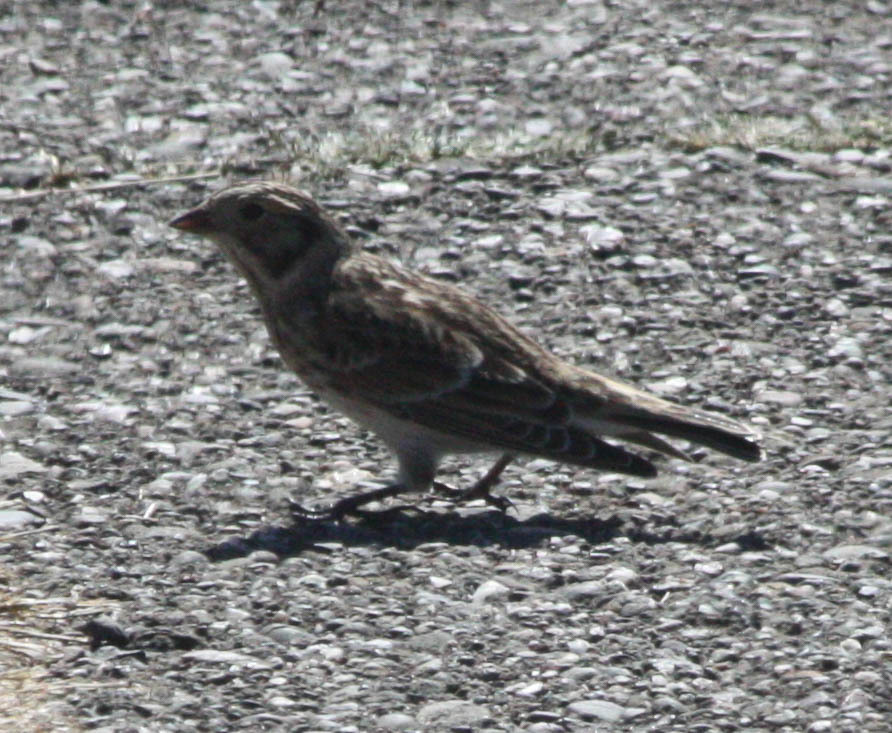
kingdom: Animalia
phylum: Chordata
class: Aves
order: Passeriformes
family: Calcariidae
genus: Calcarius
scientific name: Calcarius lapponicus
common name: Lapland longspur
